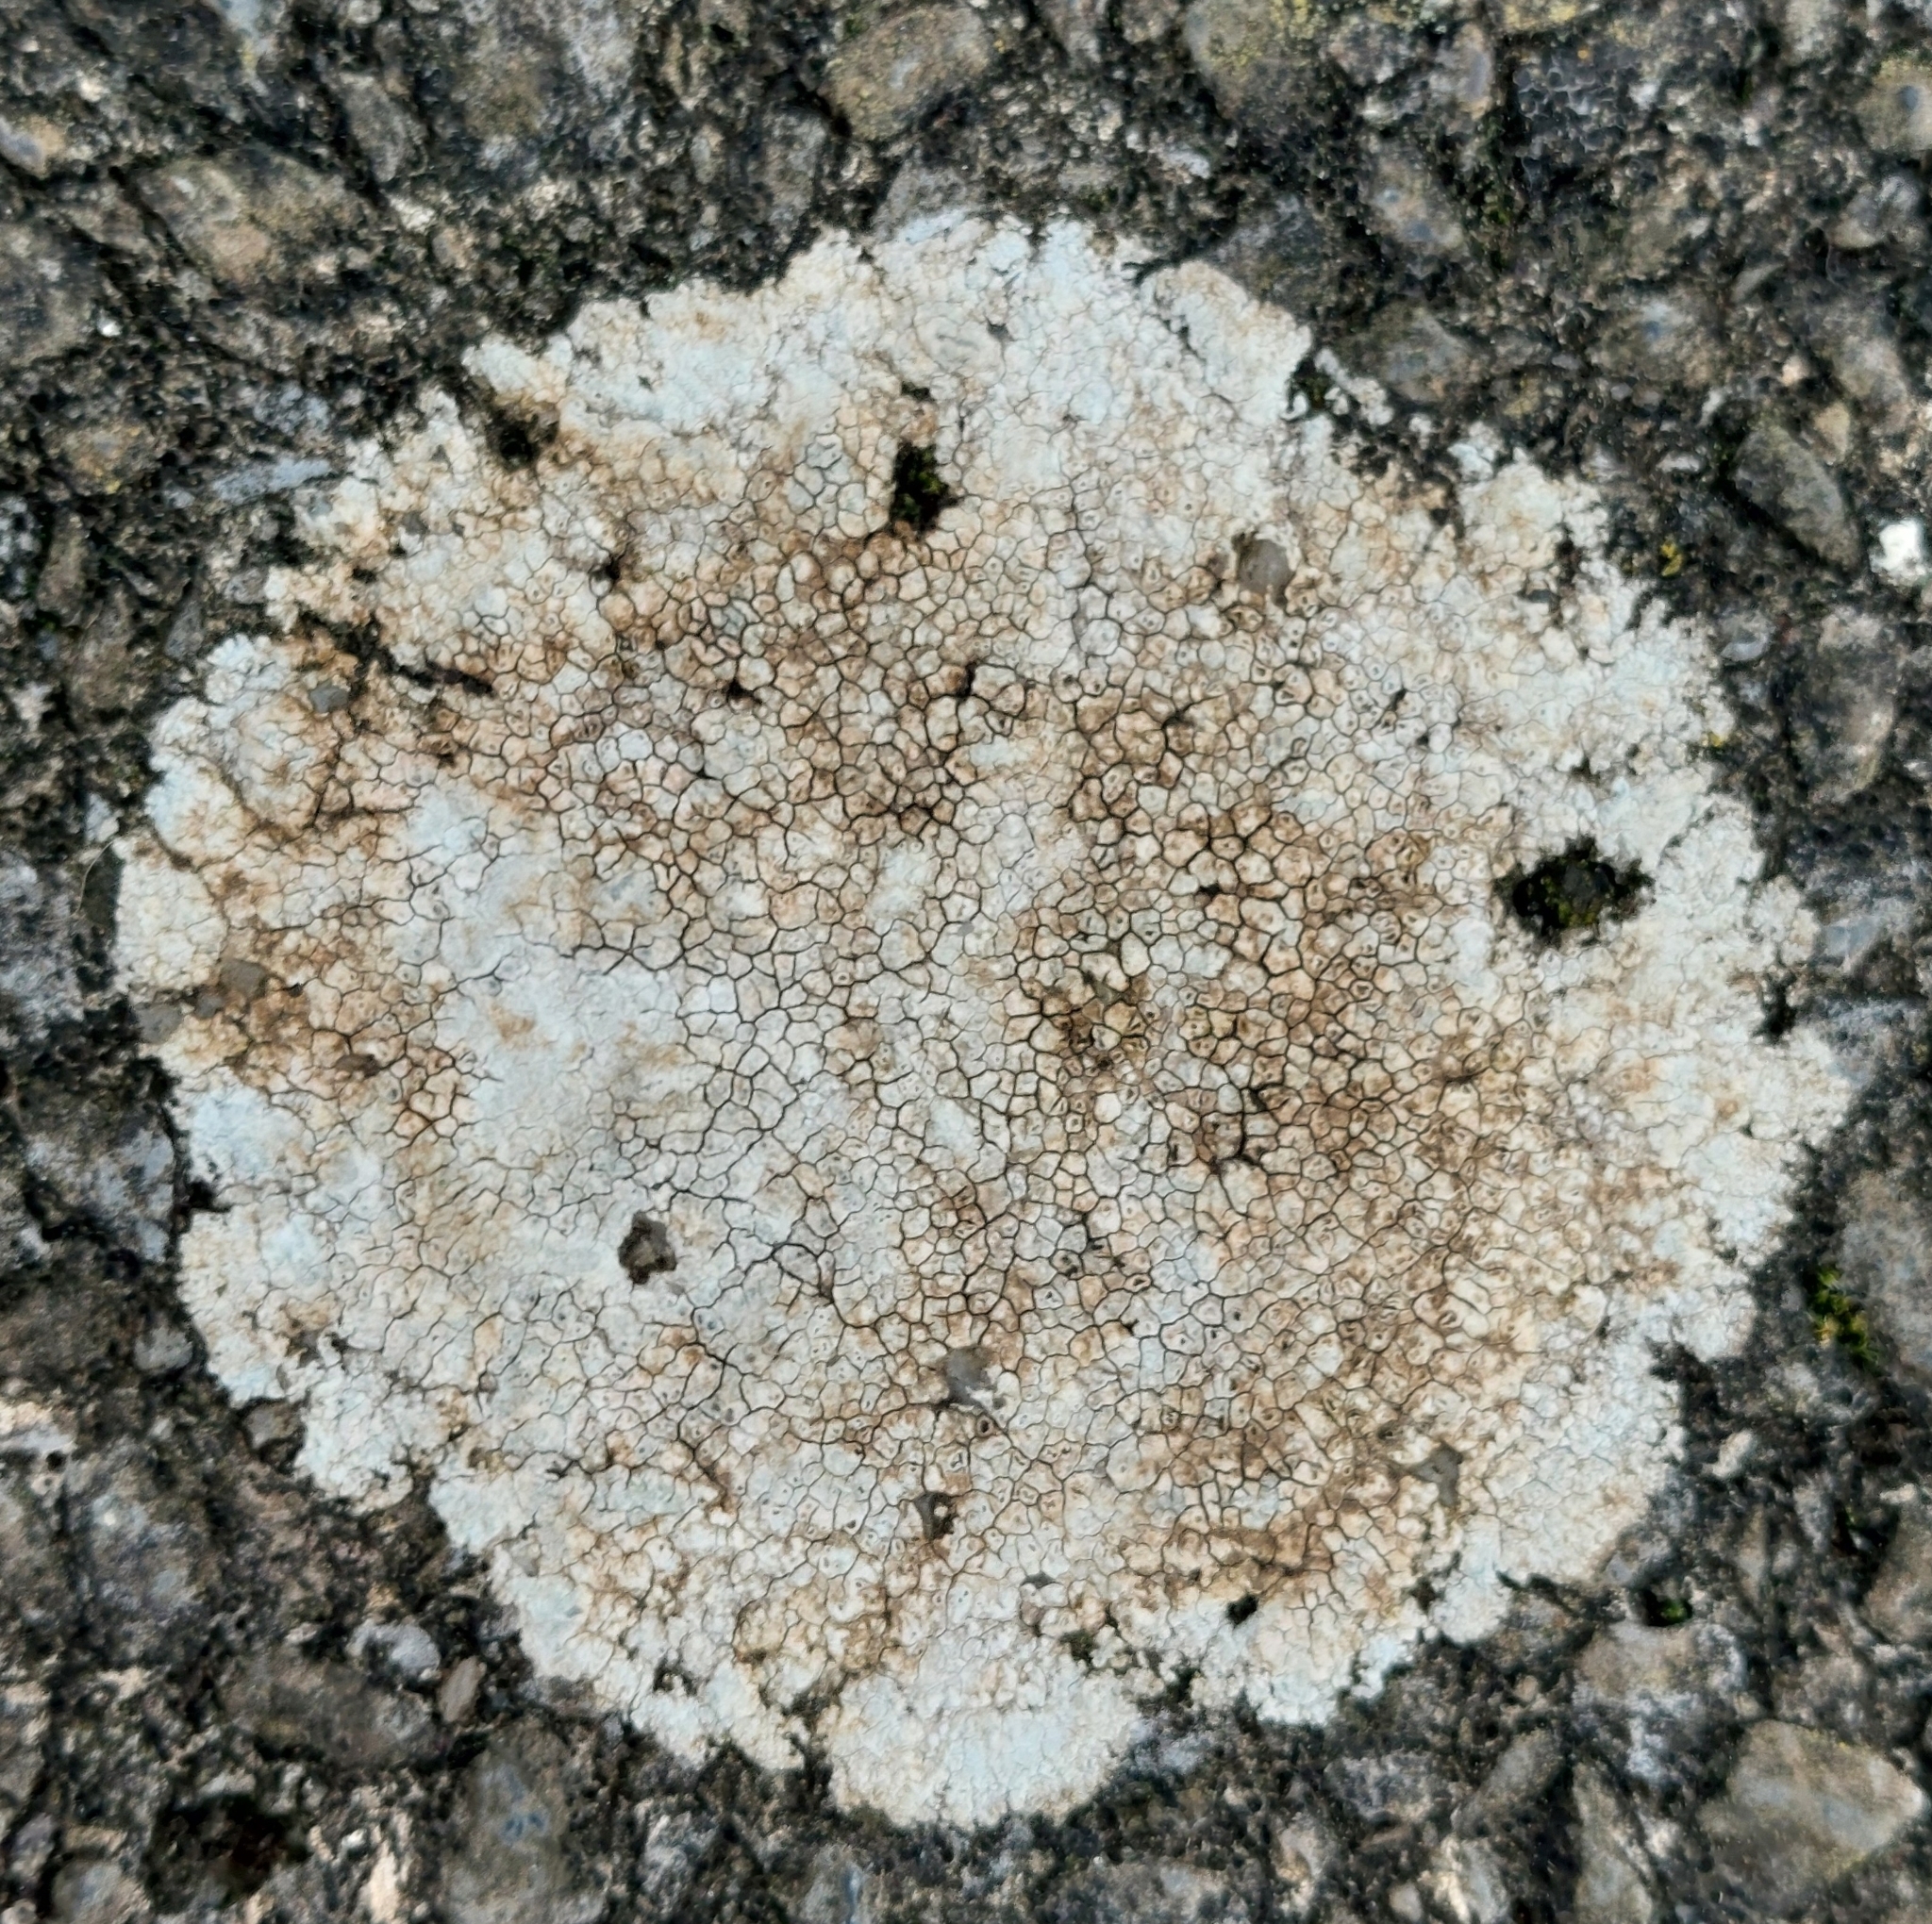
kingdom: Fungi
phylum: Ascomycota
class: Lecanoromycetes
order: Pertusariales
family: Megasporaceae
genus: Circinaria
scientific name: Circinaria calcarea
